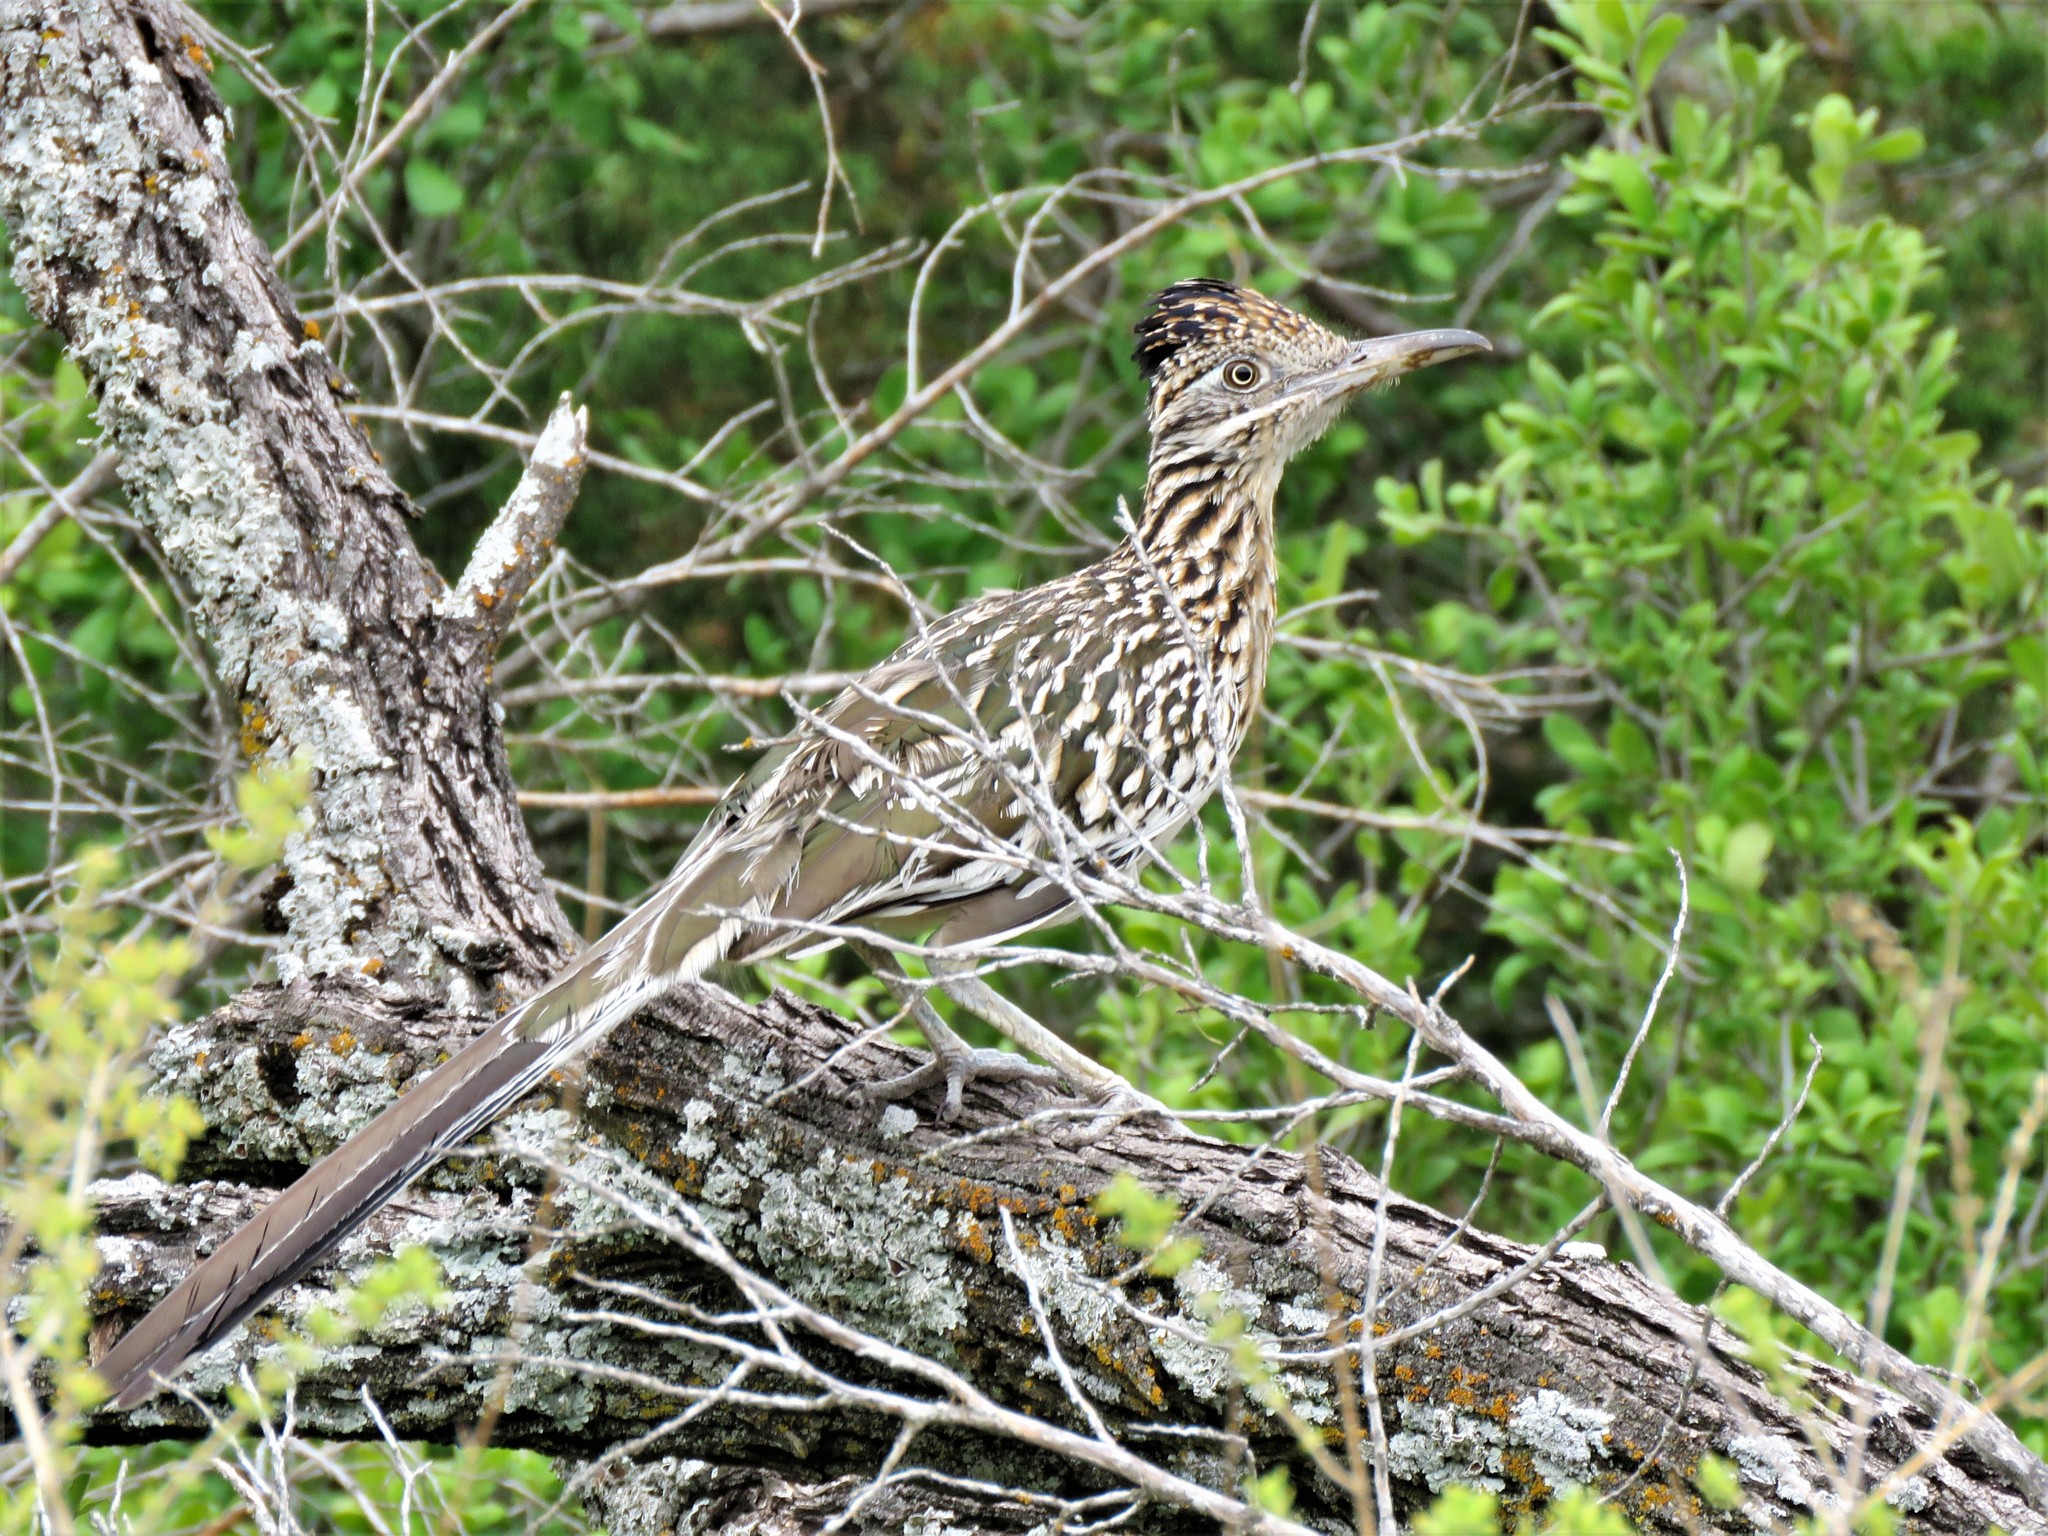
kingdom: Animalia
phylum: Chordata
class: Aves
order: Cuculiformes
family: Cuculidae
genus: Geococcyx
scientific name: Geococcyx californianus
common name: Greater roadrunner
